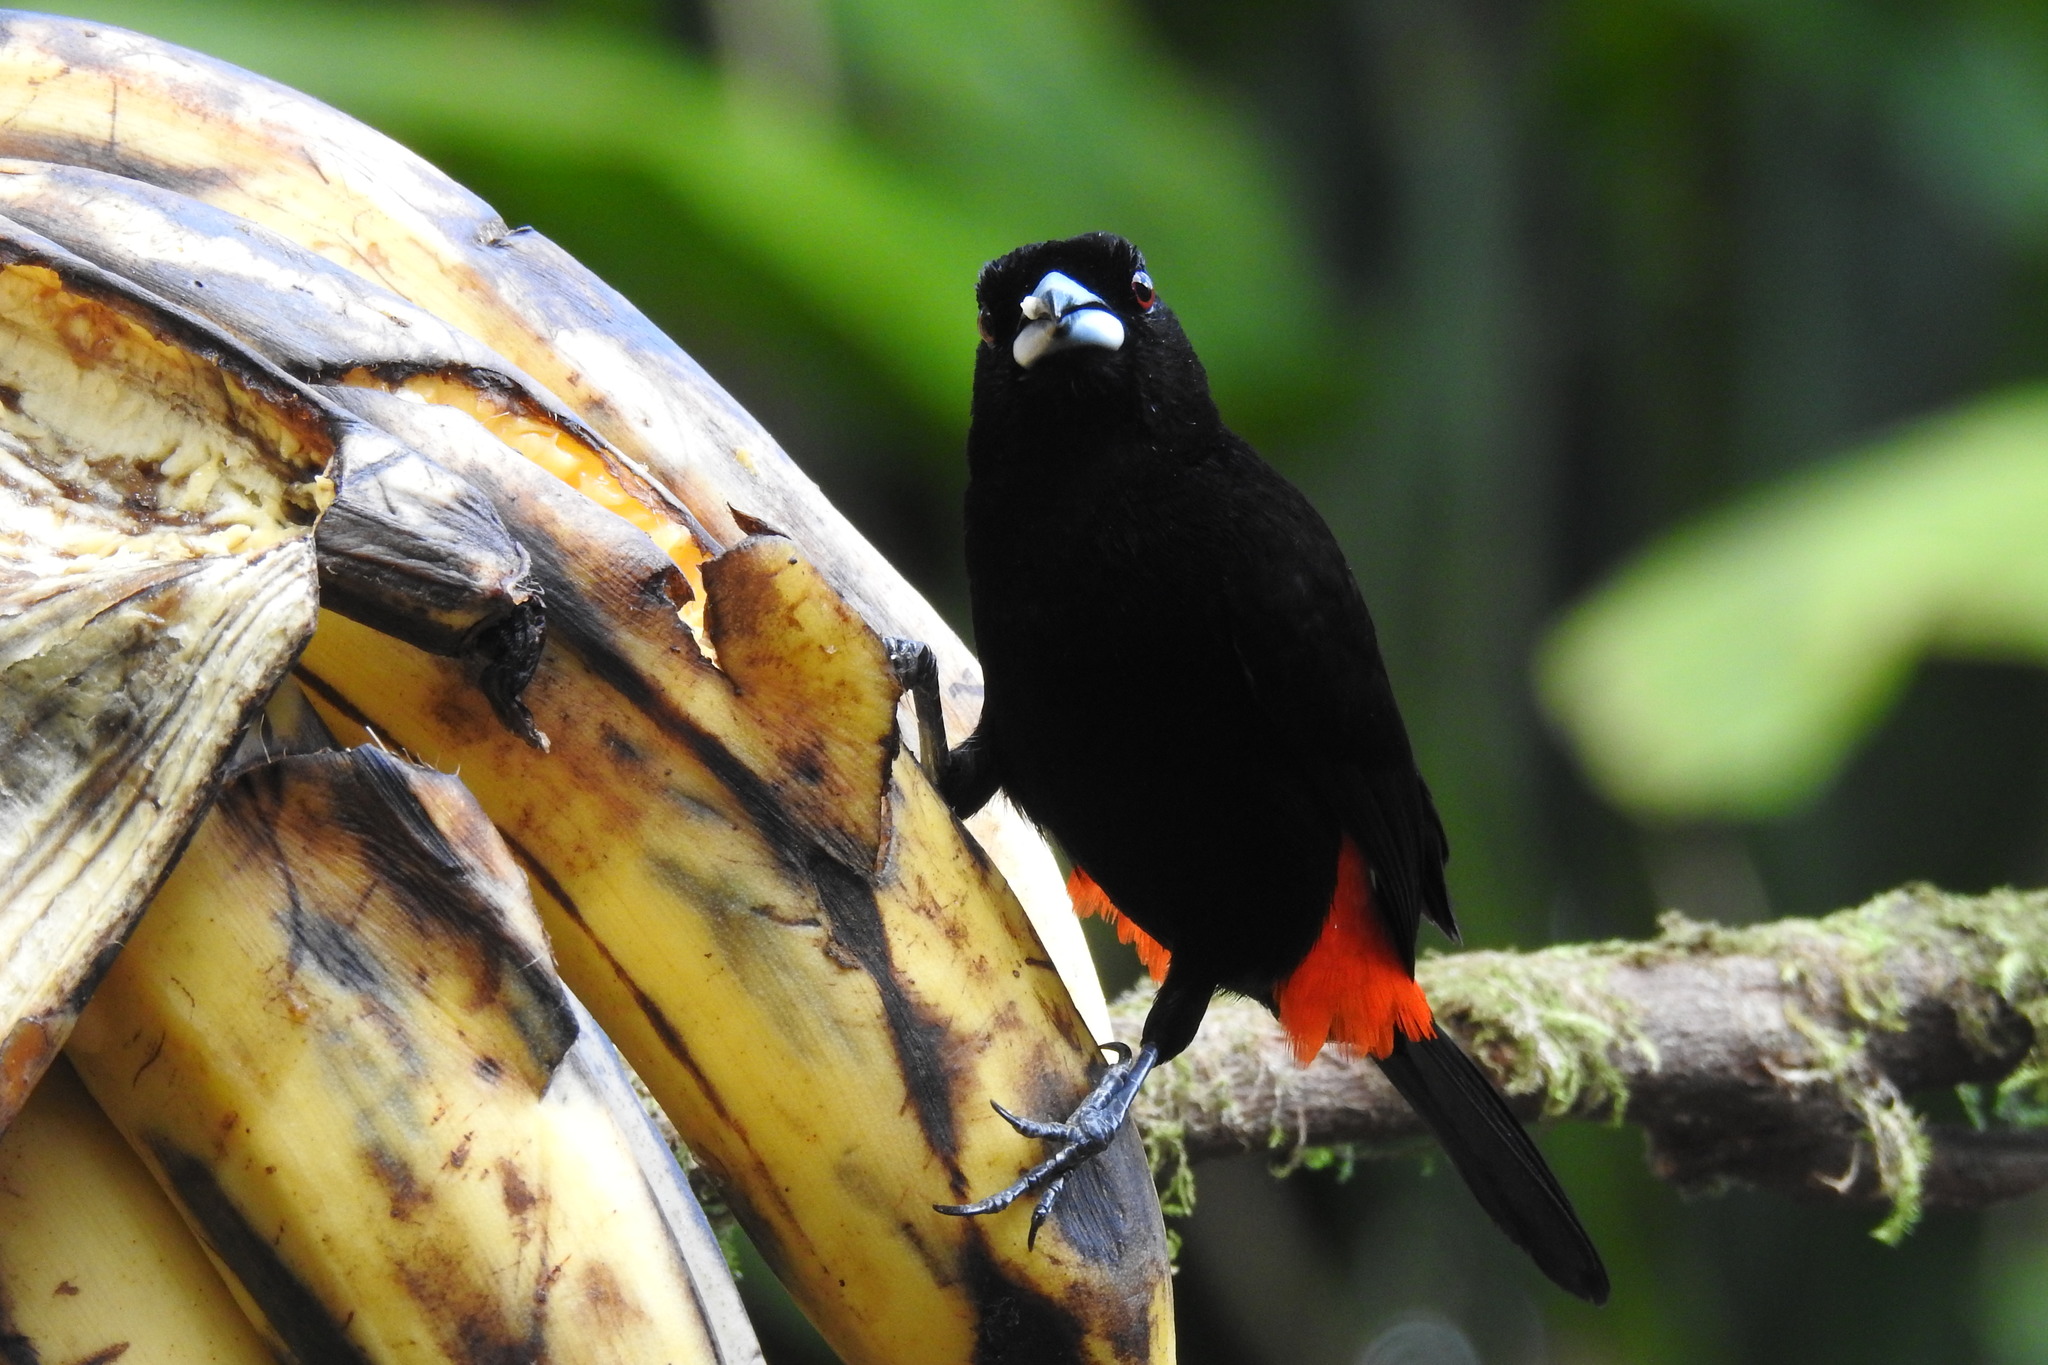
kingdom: Animalia
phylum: Chordata
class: Aves
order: Passeriformes
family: Thraupidae
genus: Ramphocelus
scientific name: Ramphocelus passerinii
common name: Passerini's tanager
